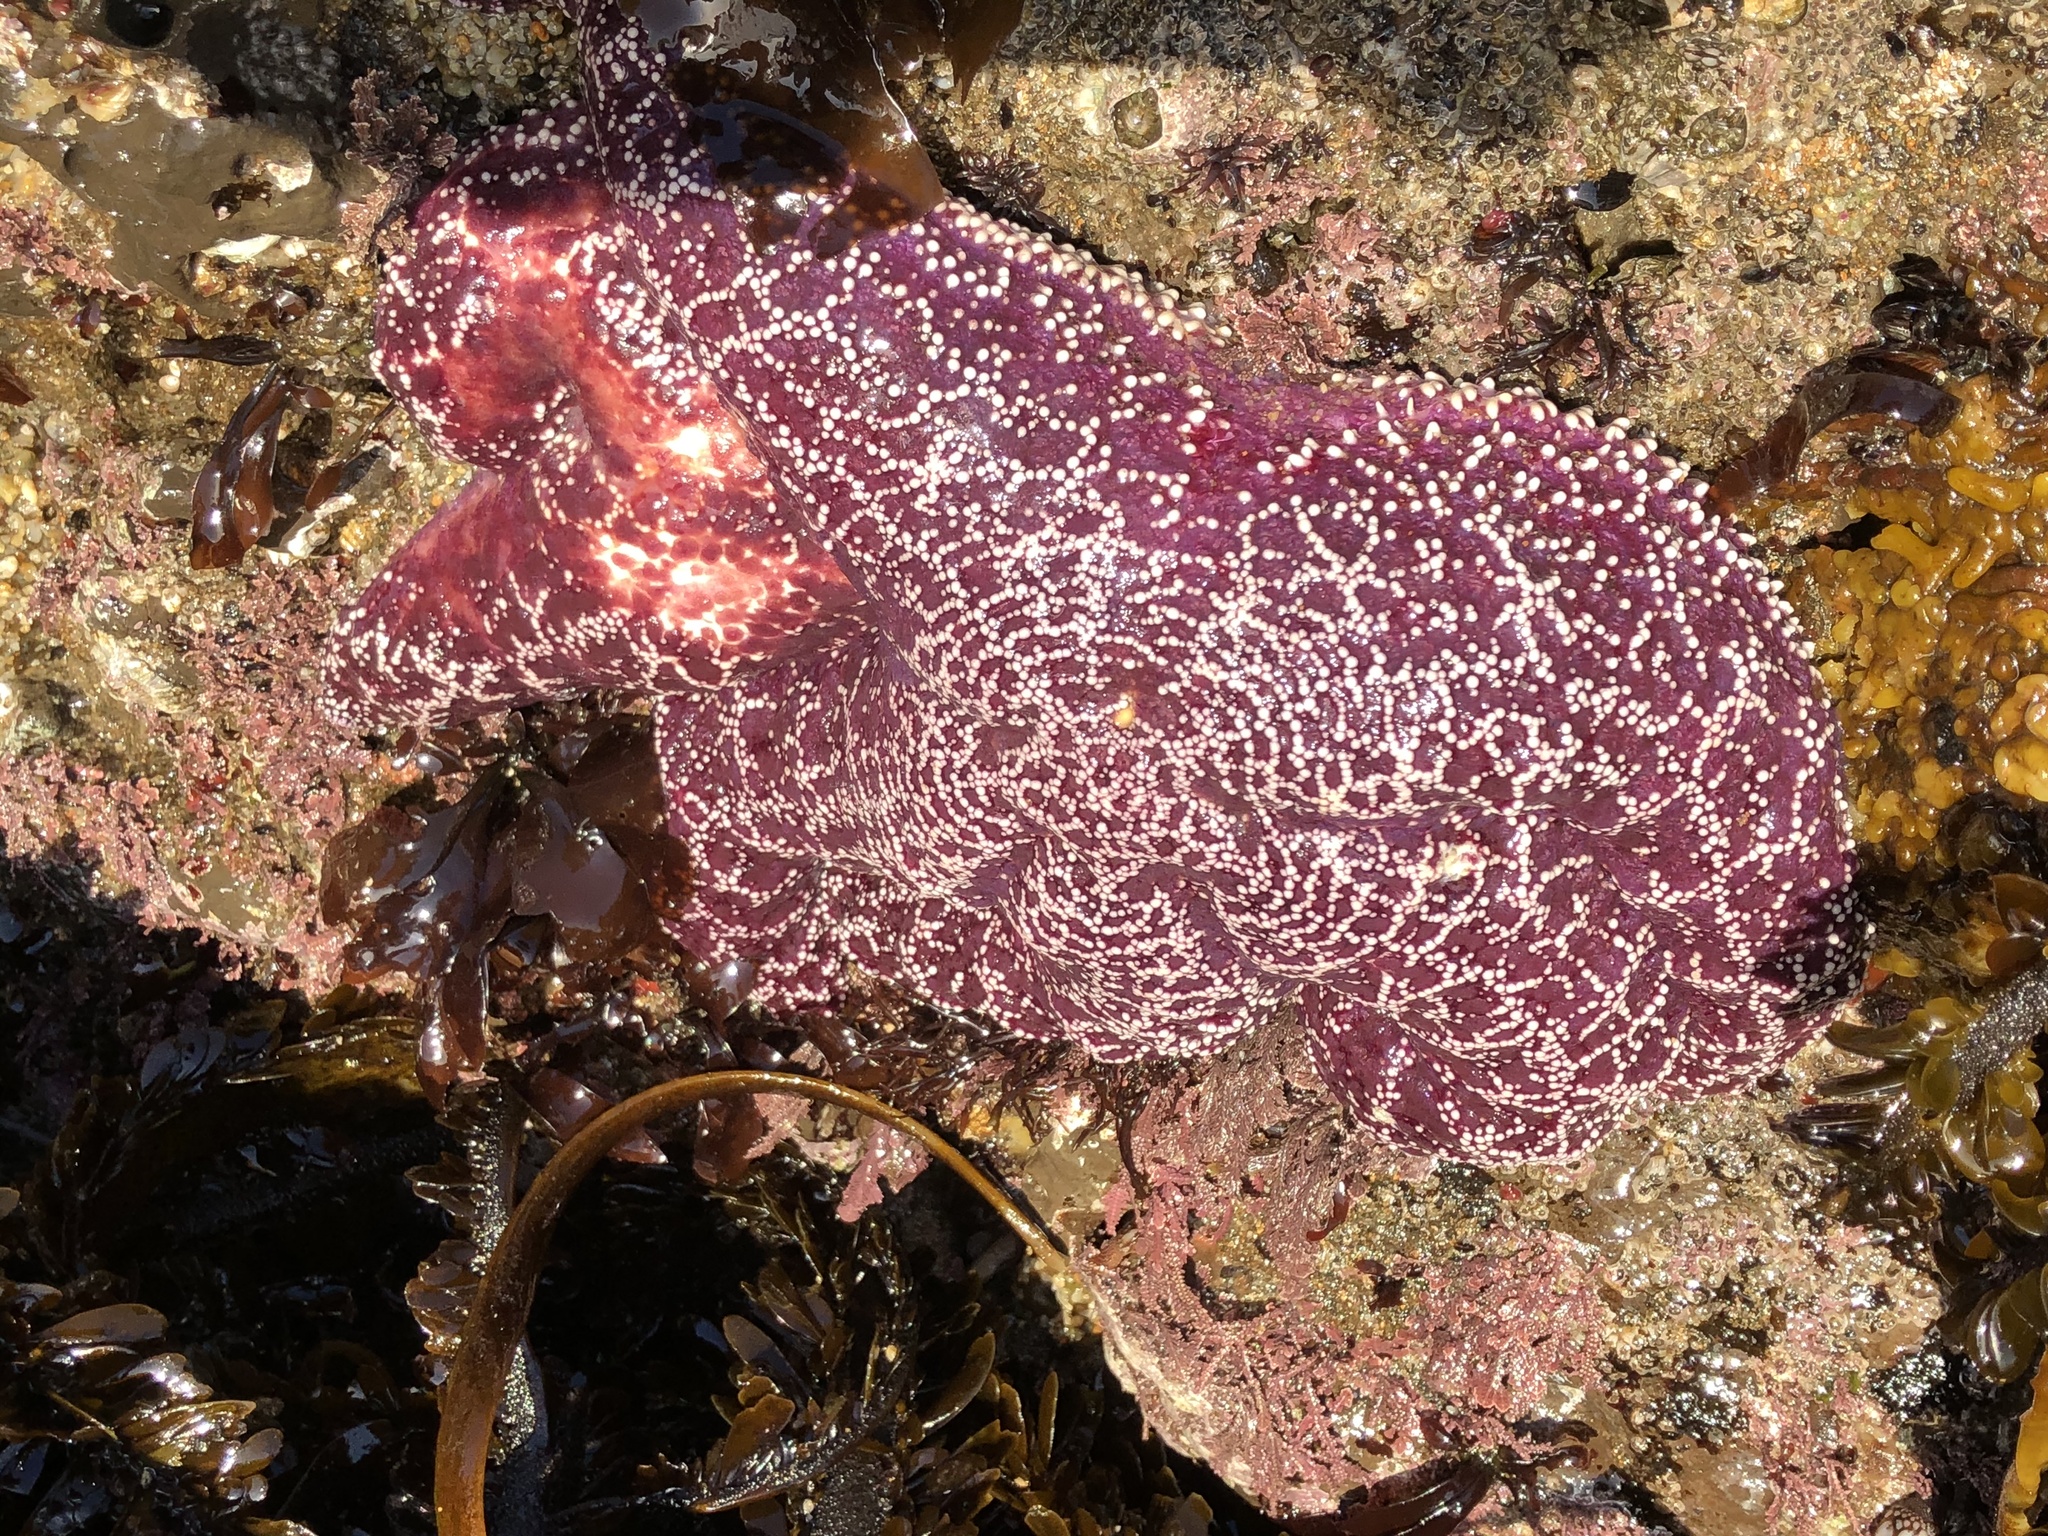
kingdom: Animalia
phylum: Echinodermata
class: Asteroidea
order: Forcipulatida
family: Asteriidae
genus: Pisaster
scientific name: Pisaster ochraceus
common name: Ochre stars
